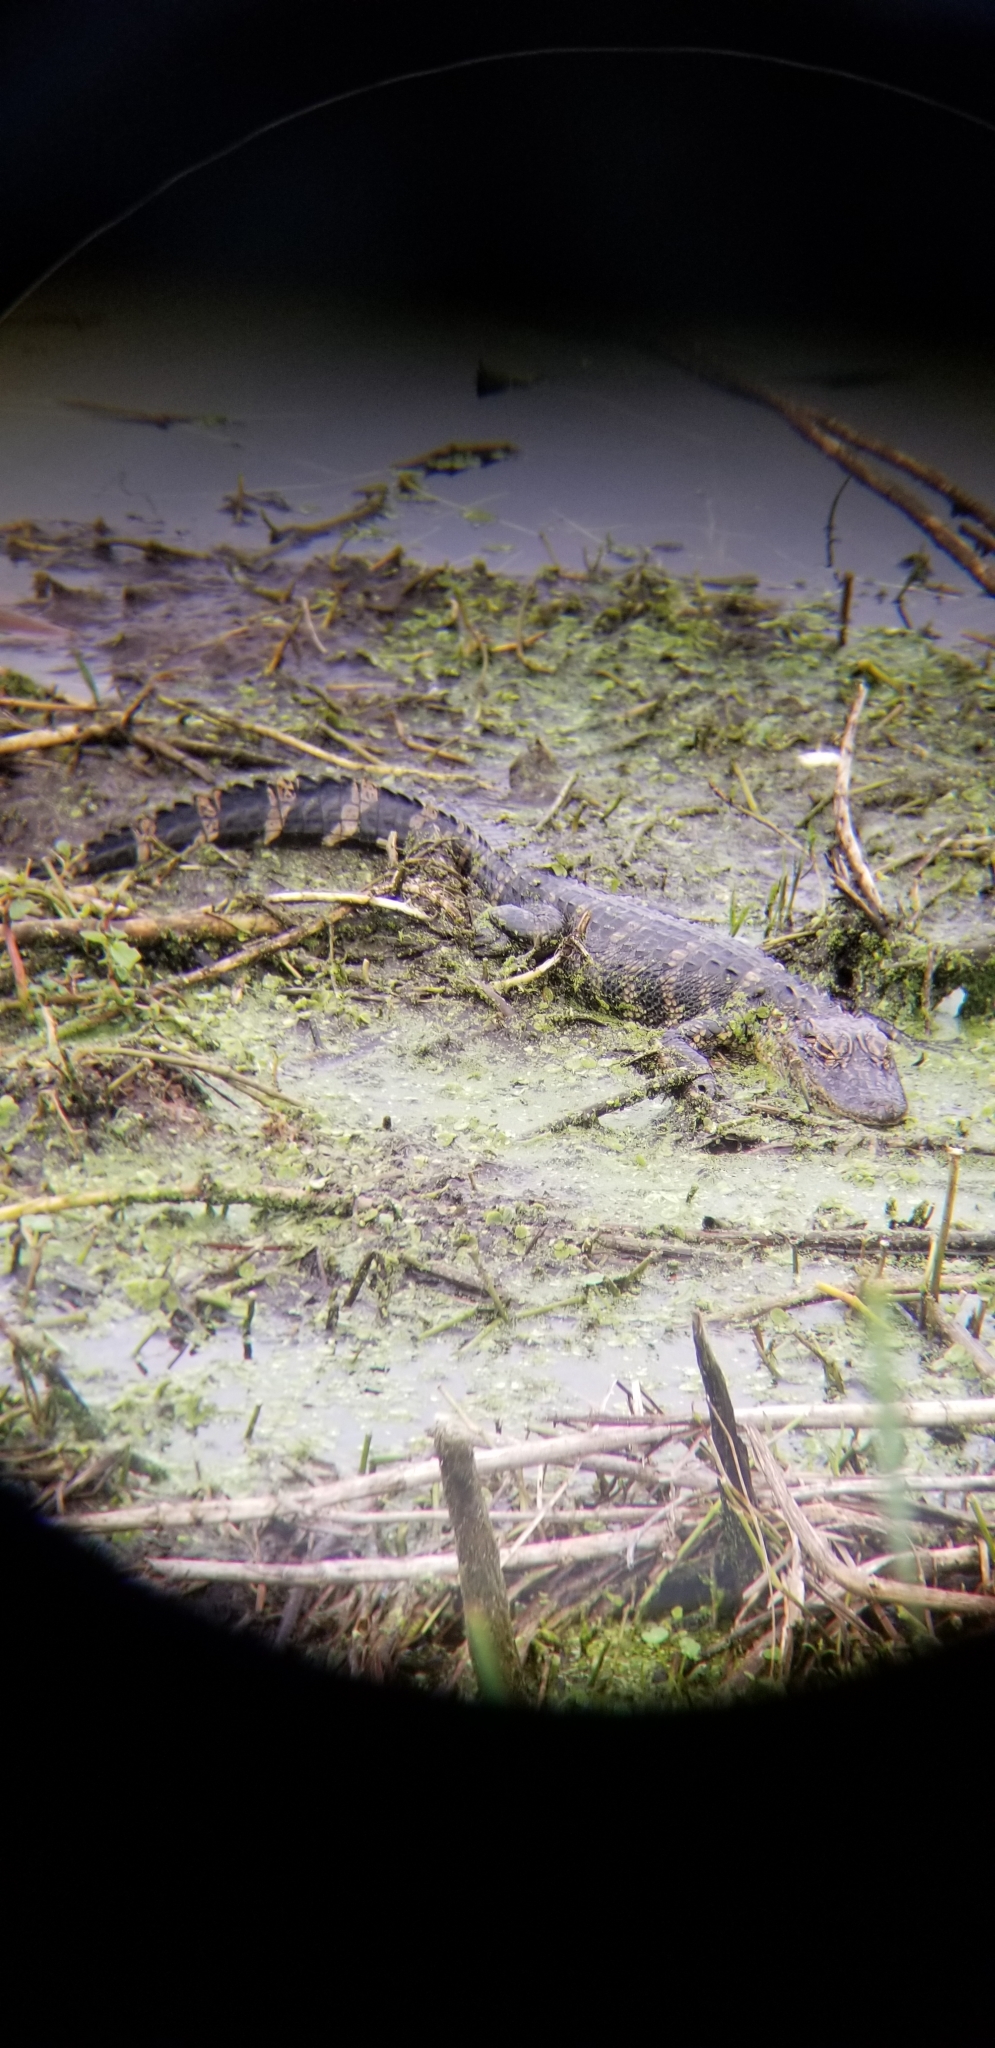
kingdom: Animalia
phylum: Chordata
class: Crocodylia
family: Alligatoridae
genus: Alligator
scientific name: Alligator mississippiensis
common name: American alligator
